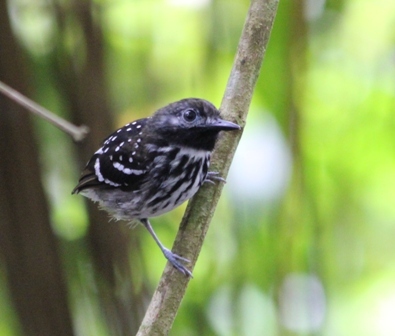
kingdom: Animalia
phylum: Chordata
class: Aves
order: Passeriformes
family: Thamnophilidae
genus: Hylophylax
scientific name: Hylophylax punctulatus
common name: Dot-backed antbird
